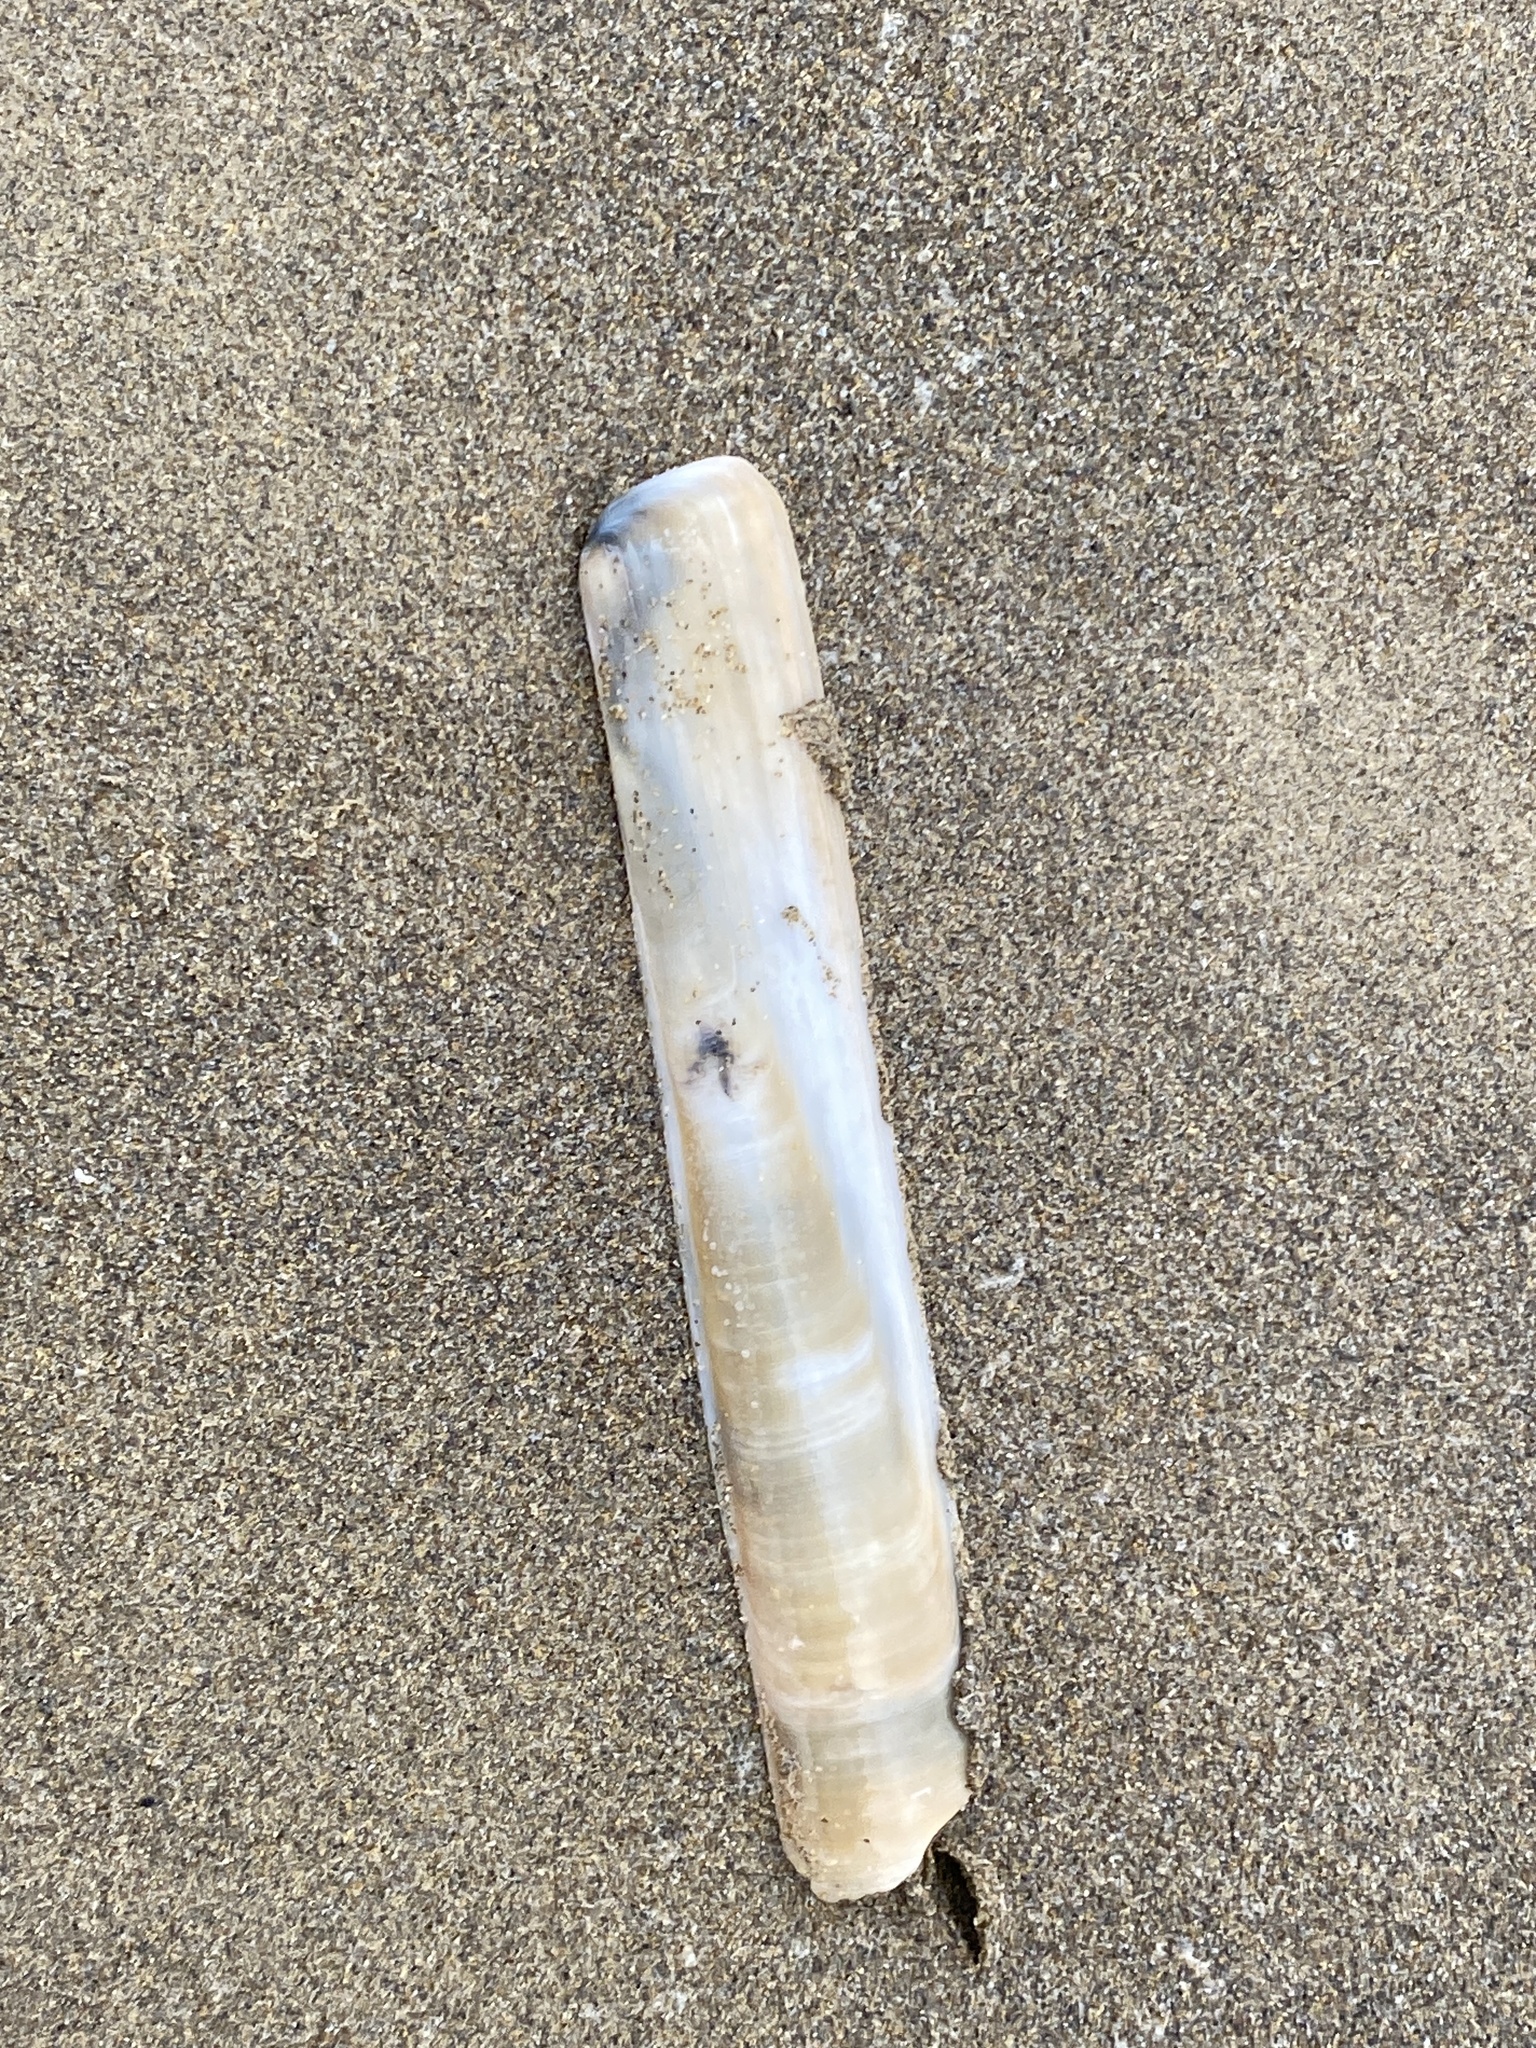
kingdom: Animalia
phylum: Mollusca
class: Bivalvia
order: Adapedonta
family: Pharidae
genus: Ensis
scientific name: Ensis minor
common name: Minor jackknife clam
